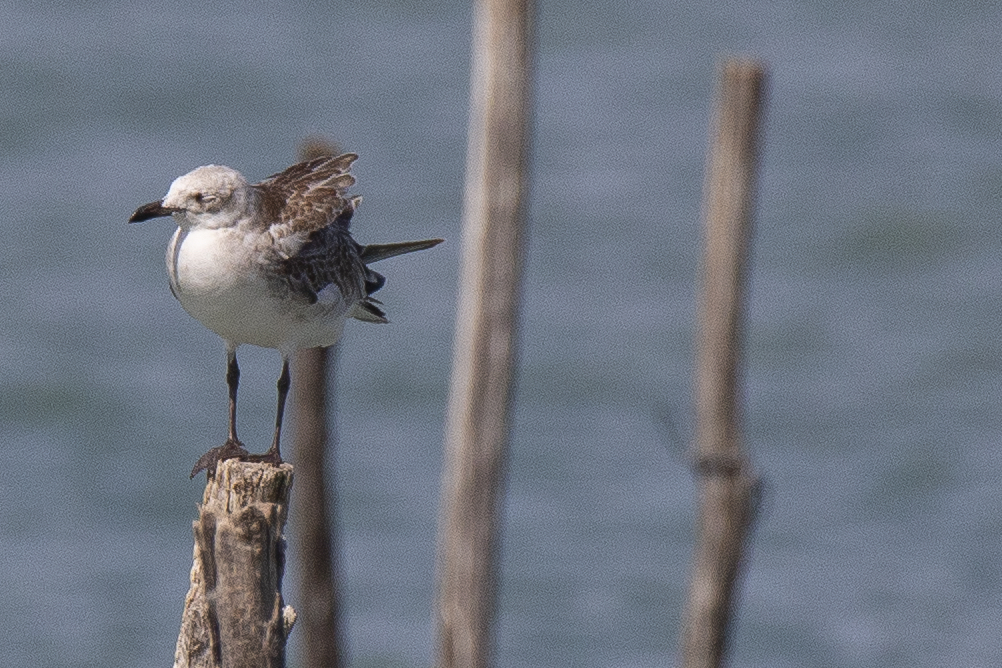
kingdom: Animalia
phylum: Chordata
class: Aves
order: Charadriiformes
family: Laridae
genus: Ichthyaetus
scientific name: Ichthyaetus melanocephalus
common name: Mediterranean gull
